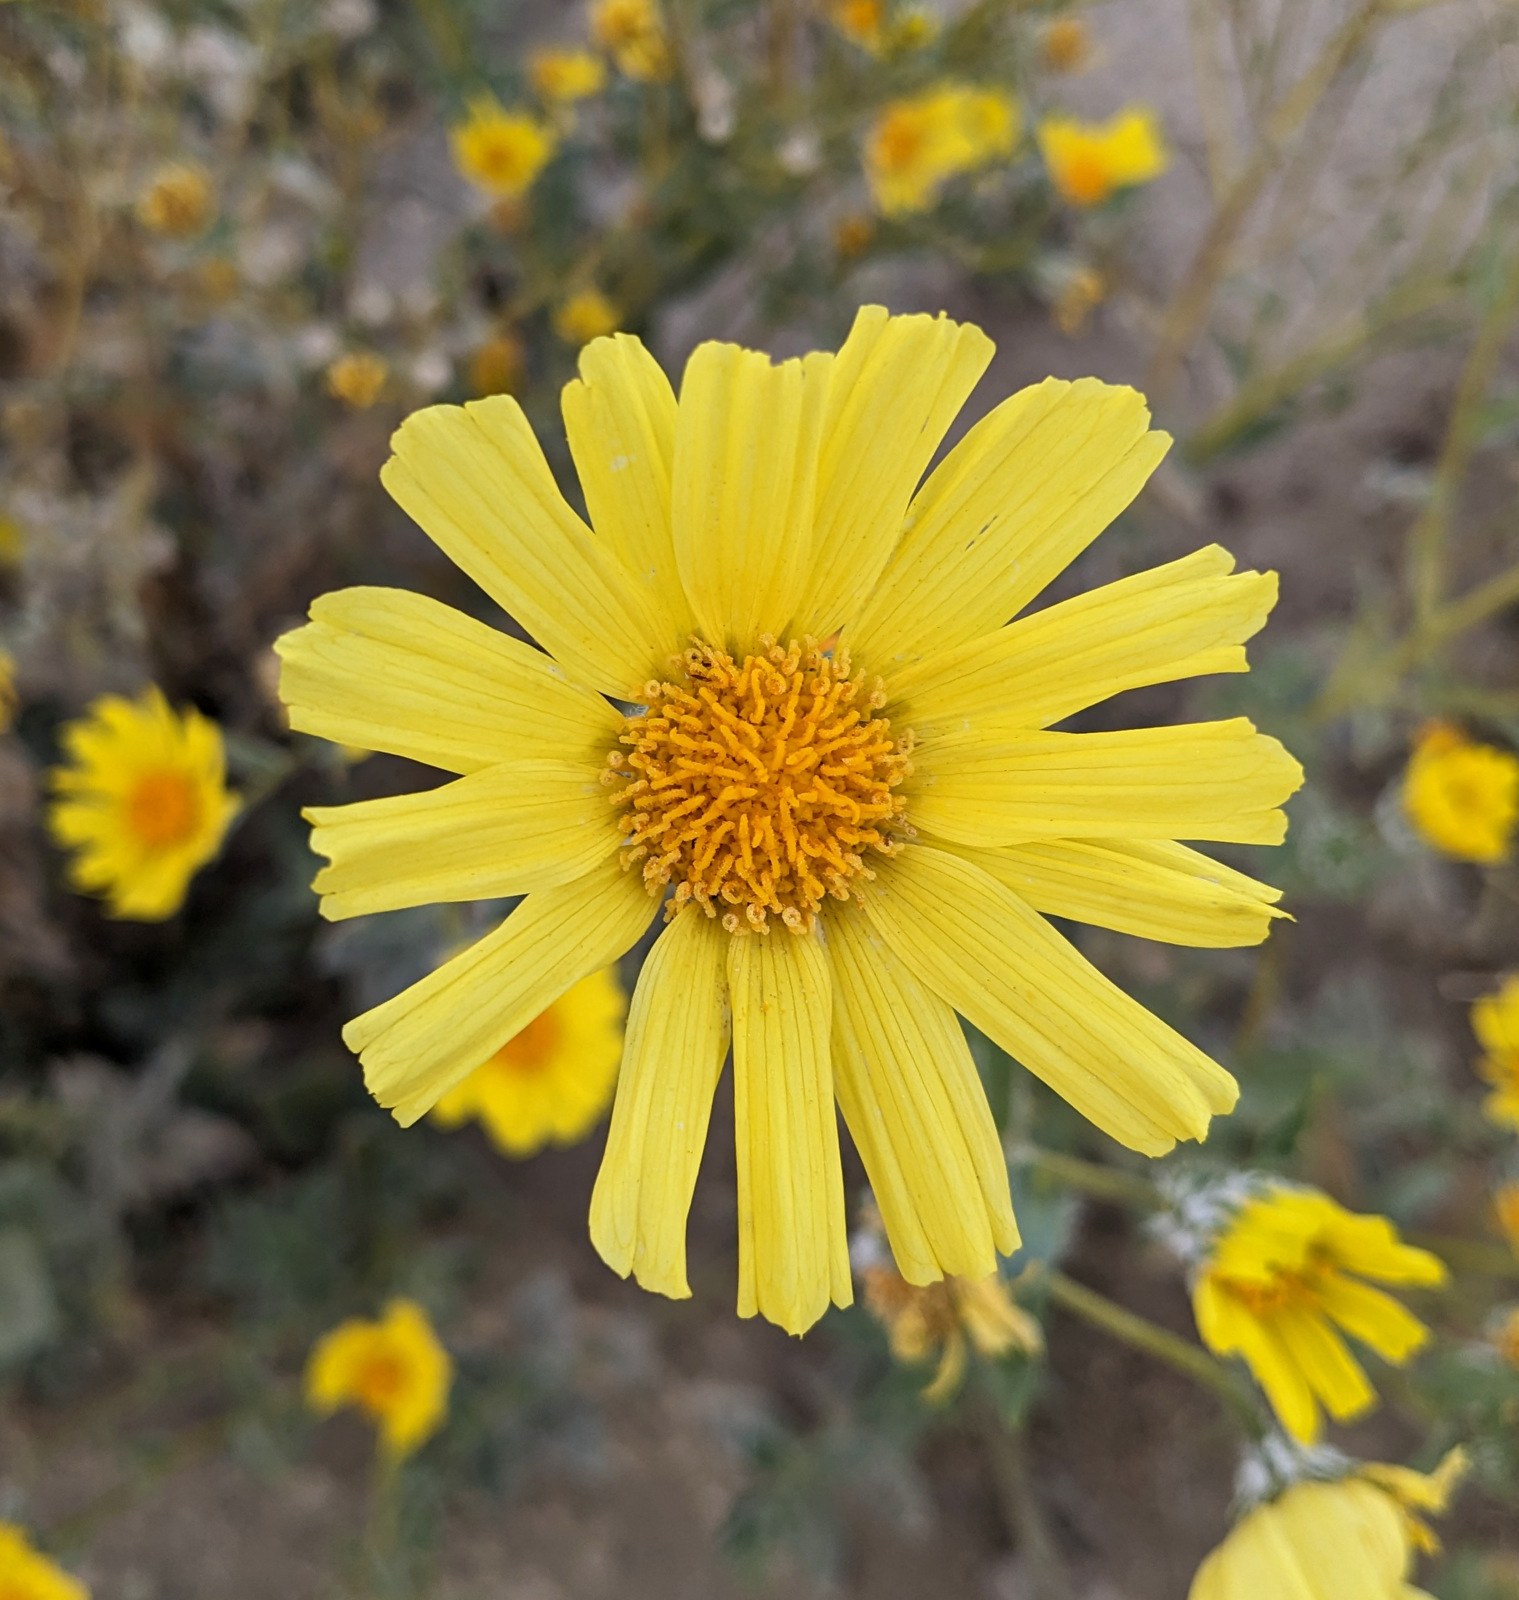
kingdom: Plantae
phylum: Tracheophyta
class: Magnoliopsida
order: Asterales
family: Asteraceae
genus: Geraea
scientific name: Geraea canescens
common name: Desert-gold
